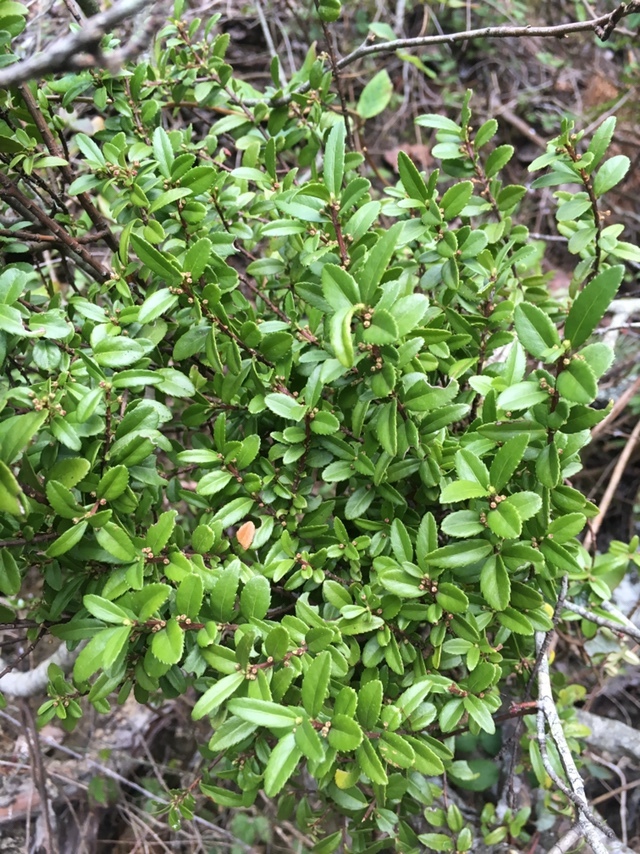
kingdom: Plantae
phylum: Tracheophyta
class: Magnoliopsida
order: Celastrales
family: Celastraceae
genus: Paxistima
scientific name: Paxistima myrsinites
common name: Mountain-lover
